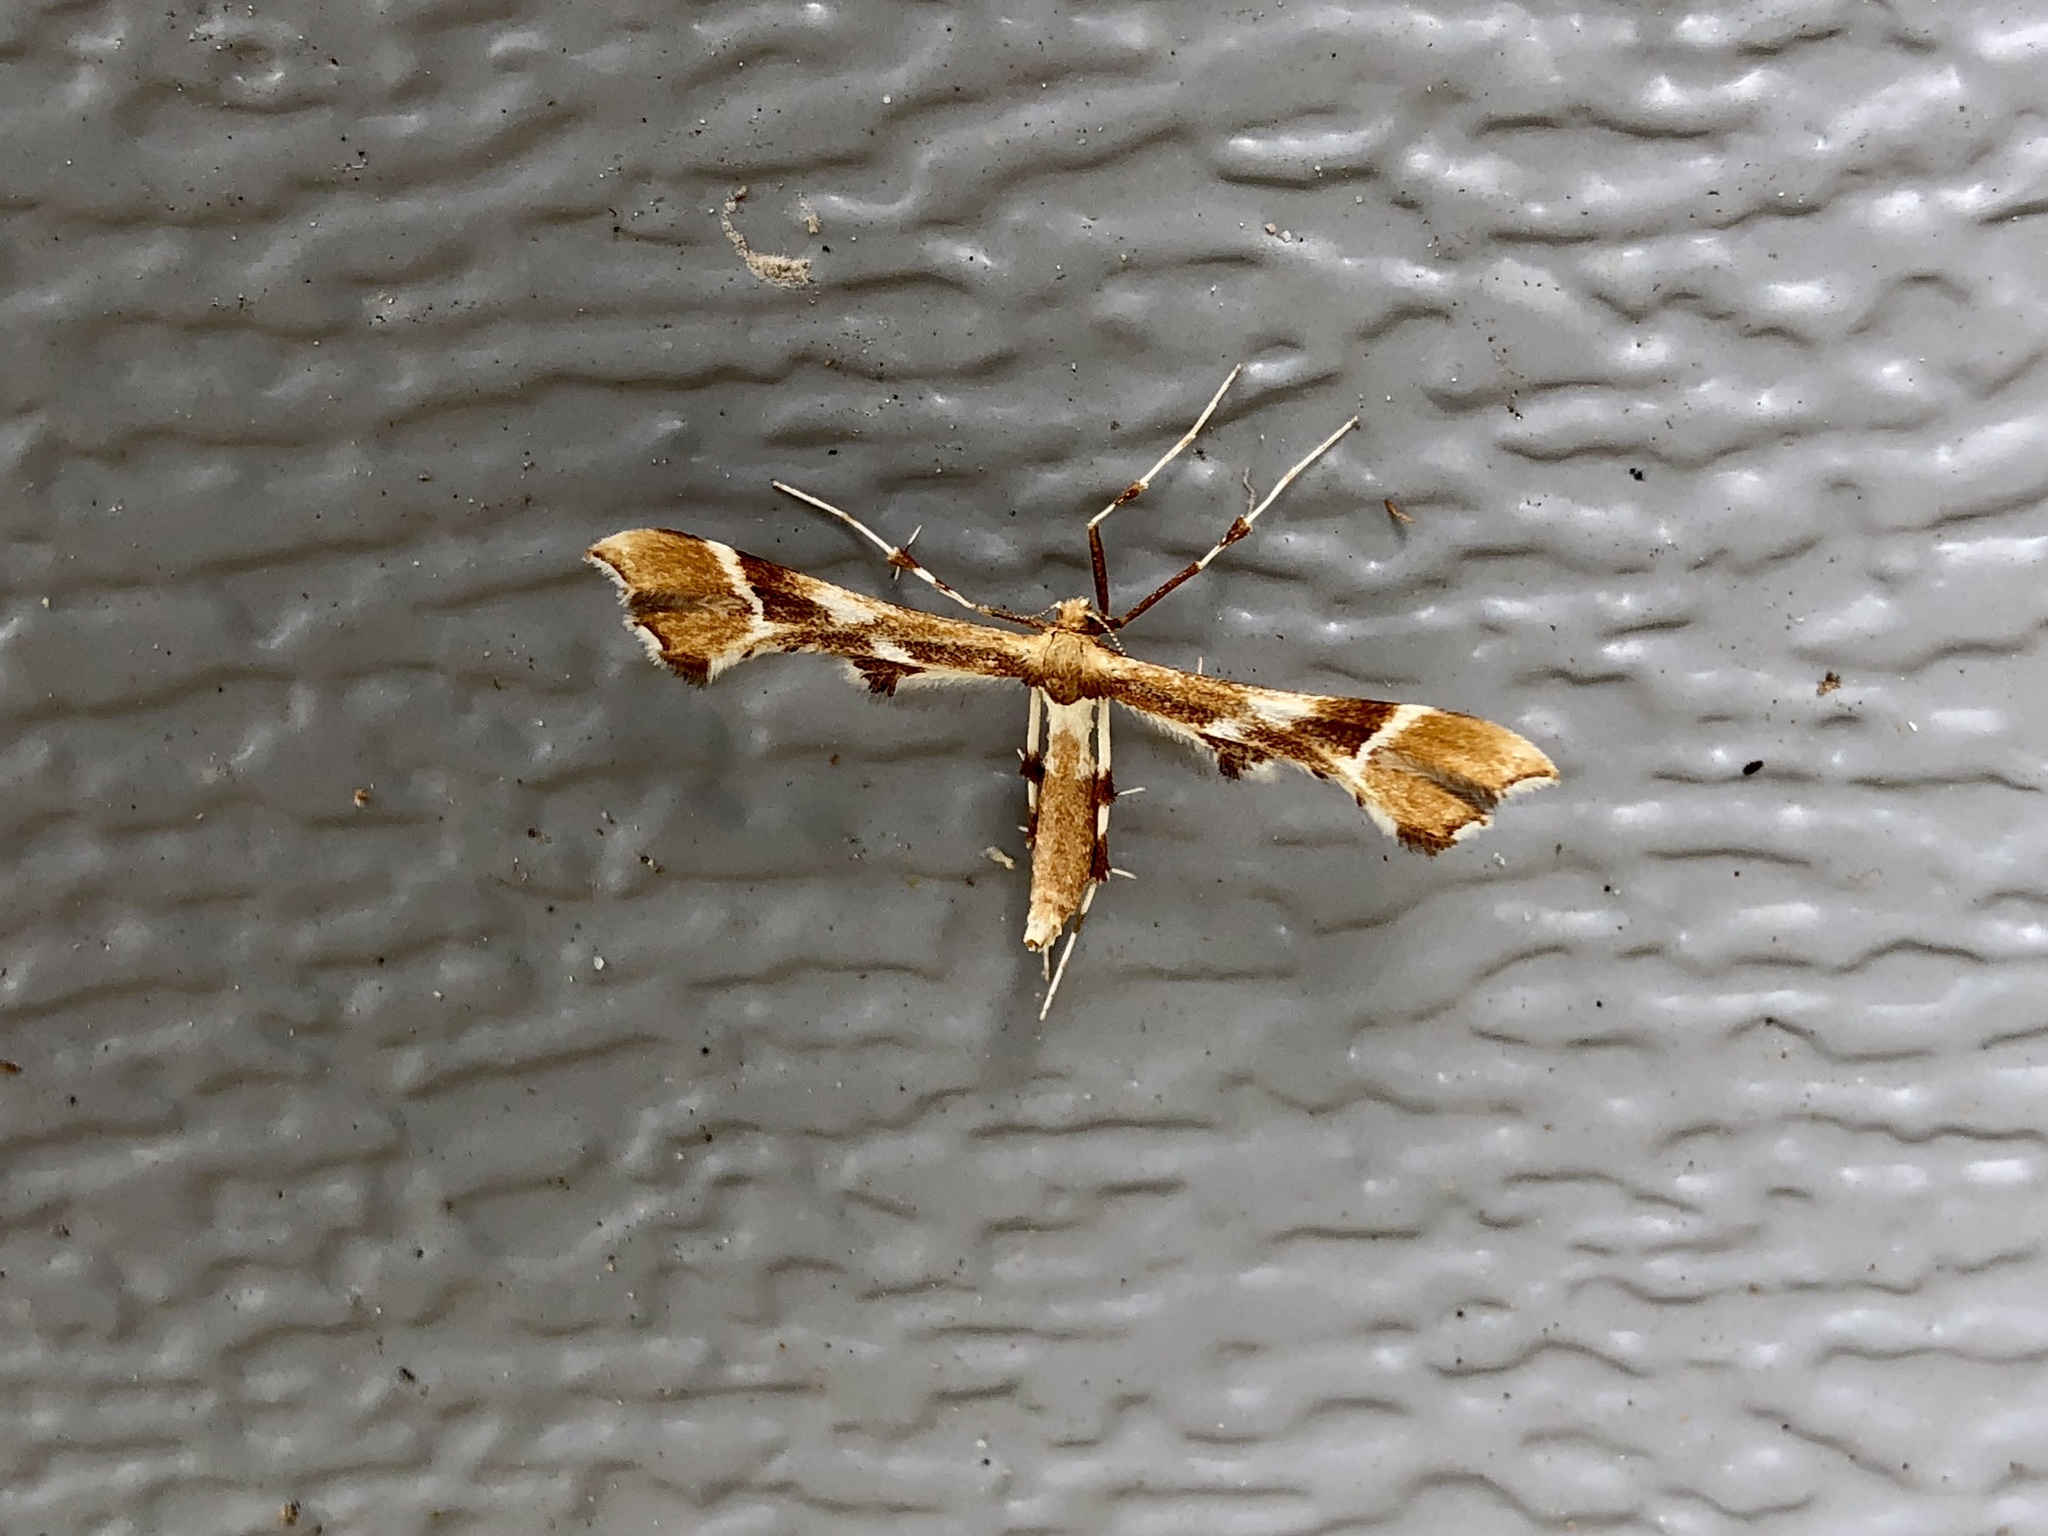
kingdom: Animalia
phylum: Arthropoda
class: Insecta
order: Lepidoptera
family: Pterophoridae
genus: Cnaemidophorus
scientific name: Cnaemidophorus rhododactyla
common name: Rose plume
